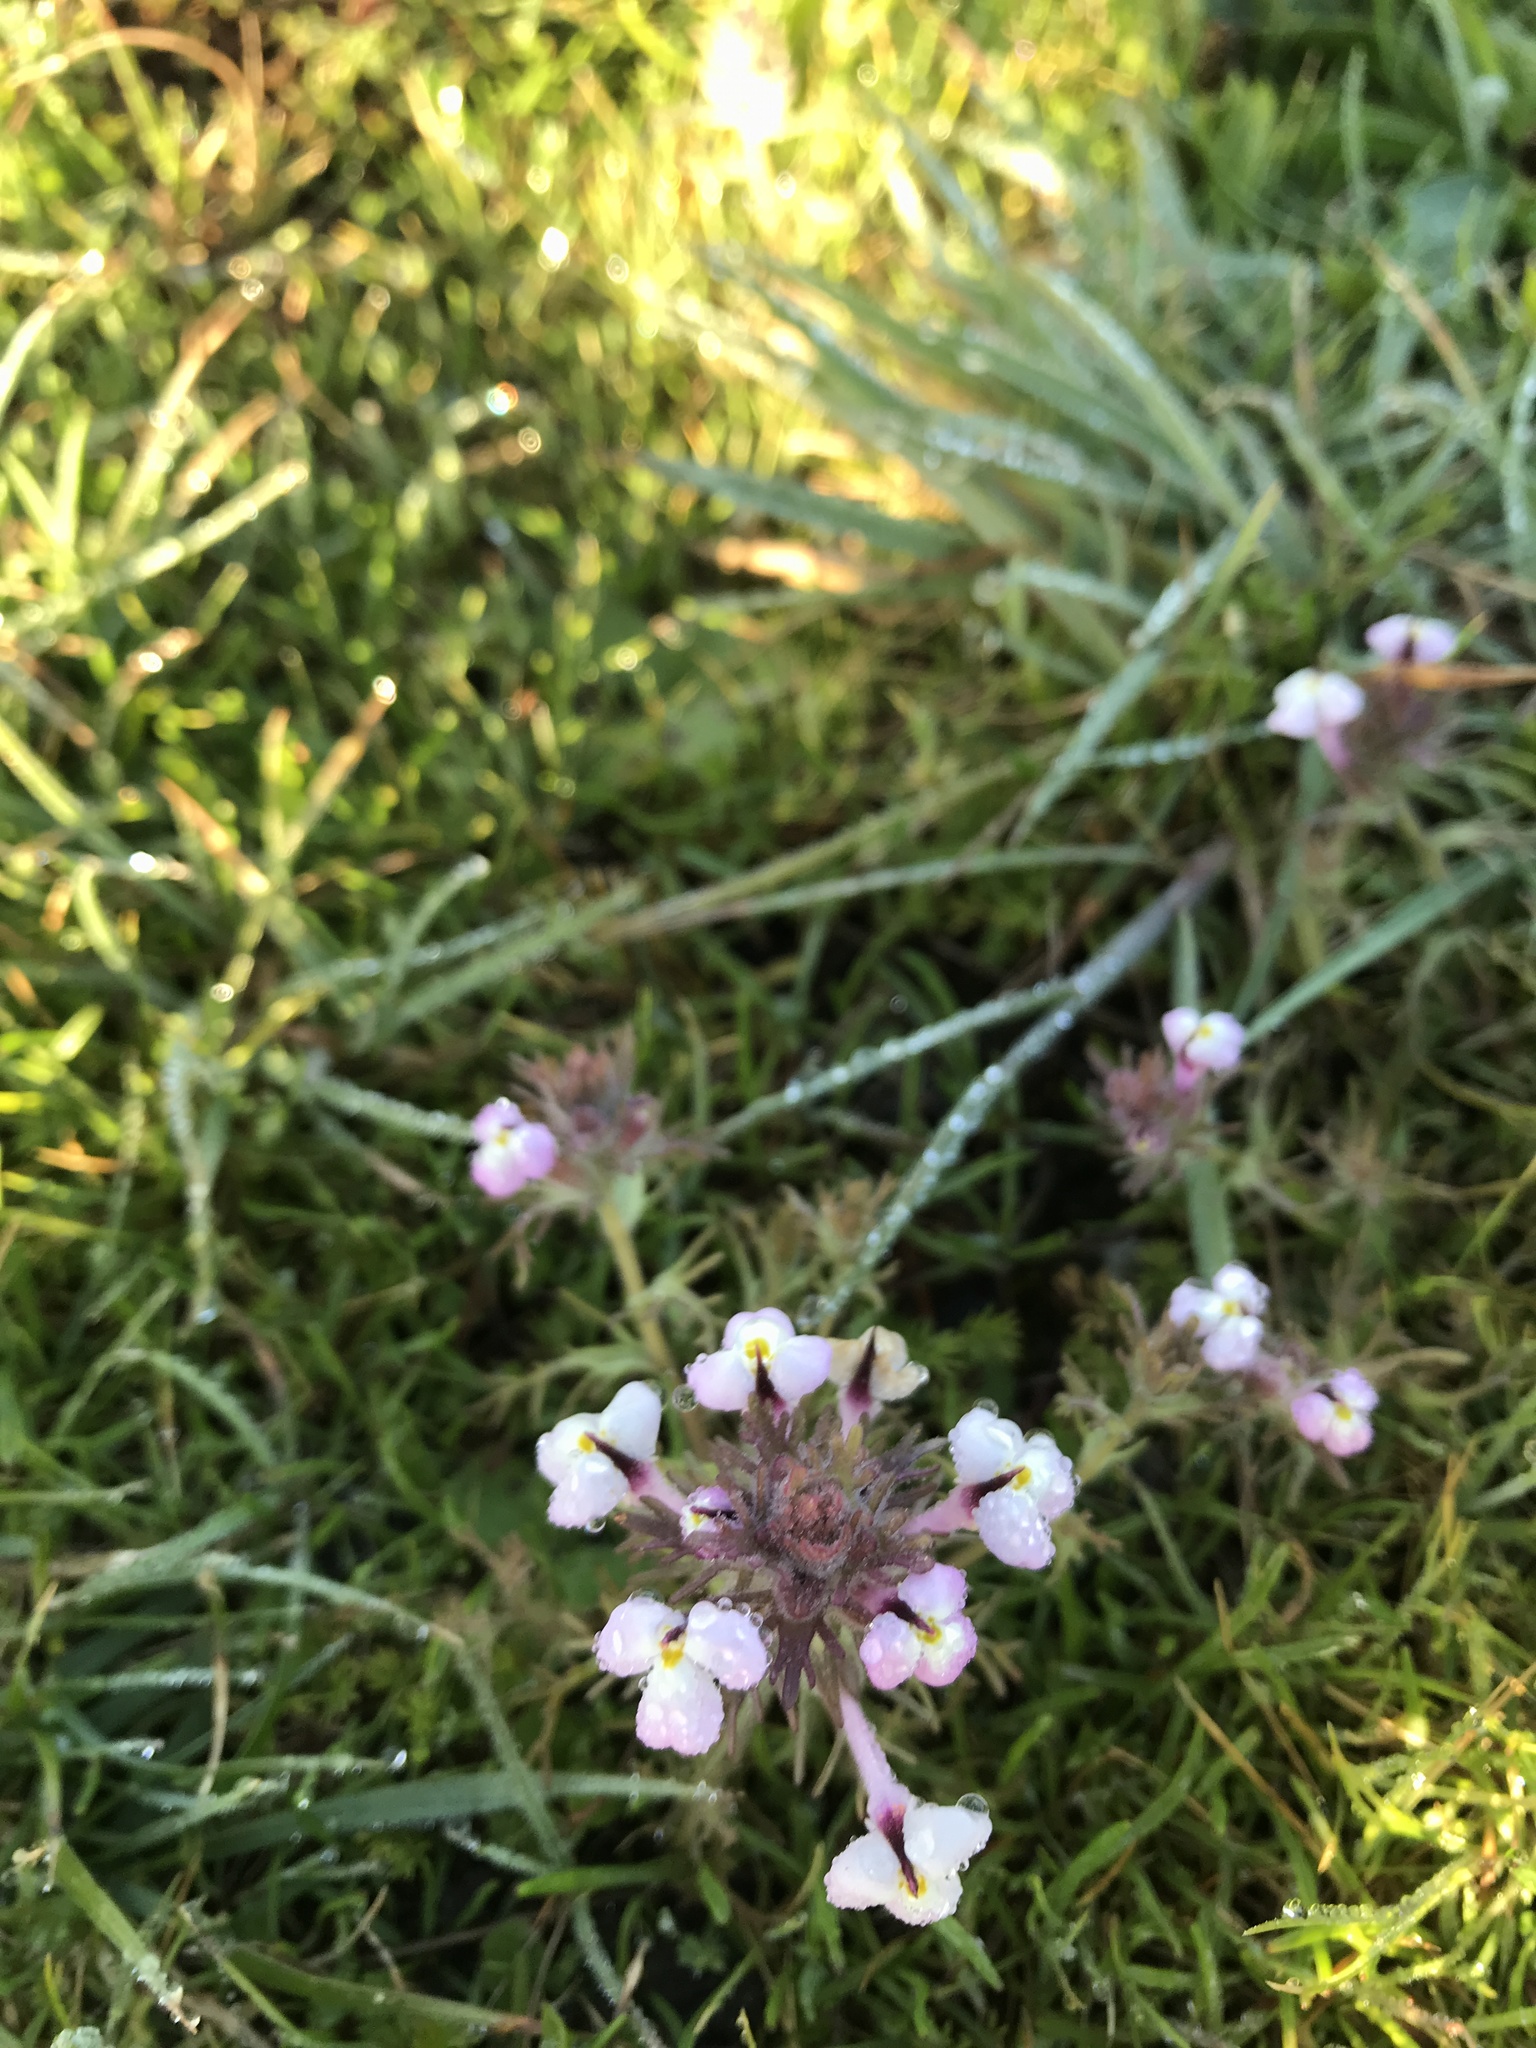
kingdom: Plantae
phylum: Tracheophyta
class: Magnoliopsida
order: Lamiales
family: Orobanchaceae
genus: Triphysaria
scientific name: Triphysaria eriantha
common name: Johnny-tuck
